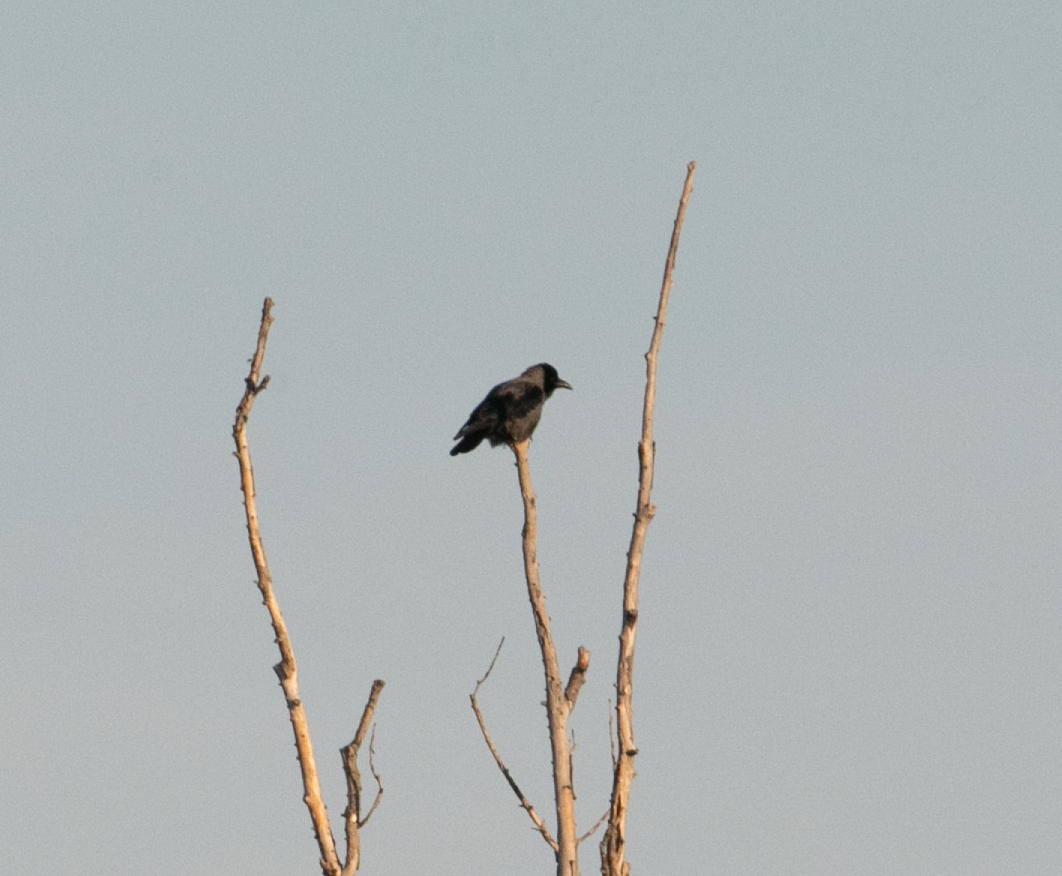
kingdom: Animalia
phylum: Chordata
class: Aves
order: Passeriformes
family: Corvidae
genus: Corvus
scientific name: Corvus cornix
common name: Hooded crow
